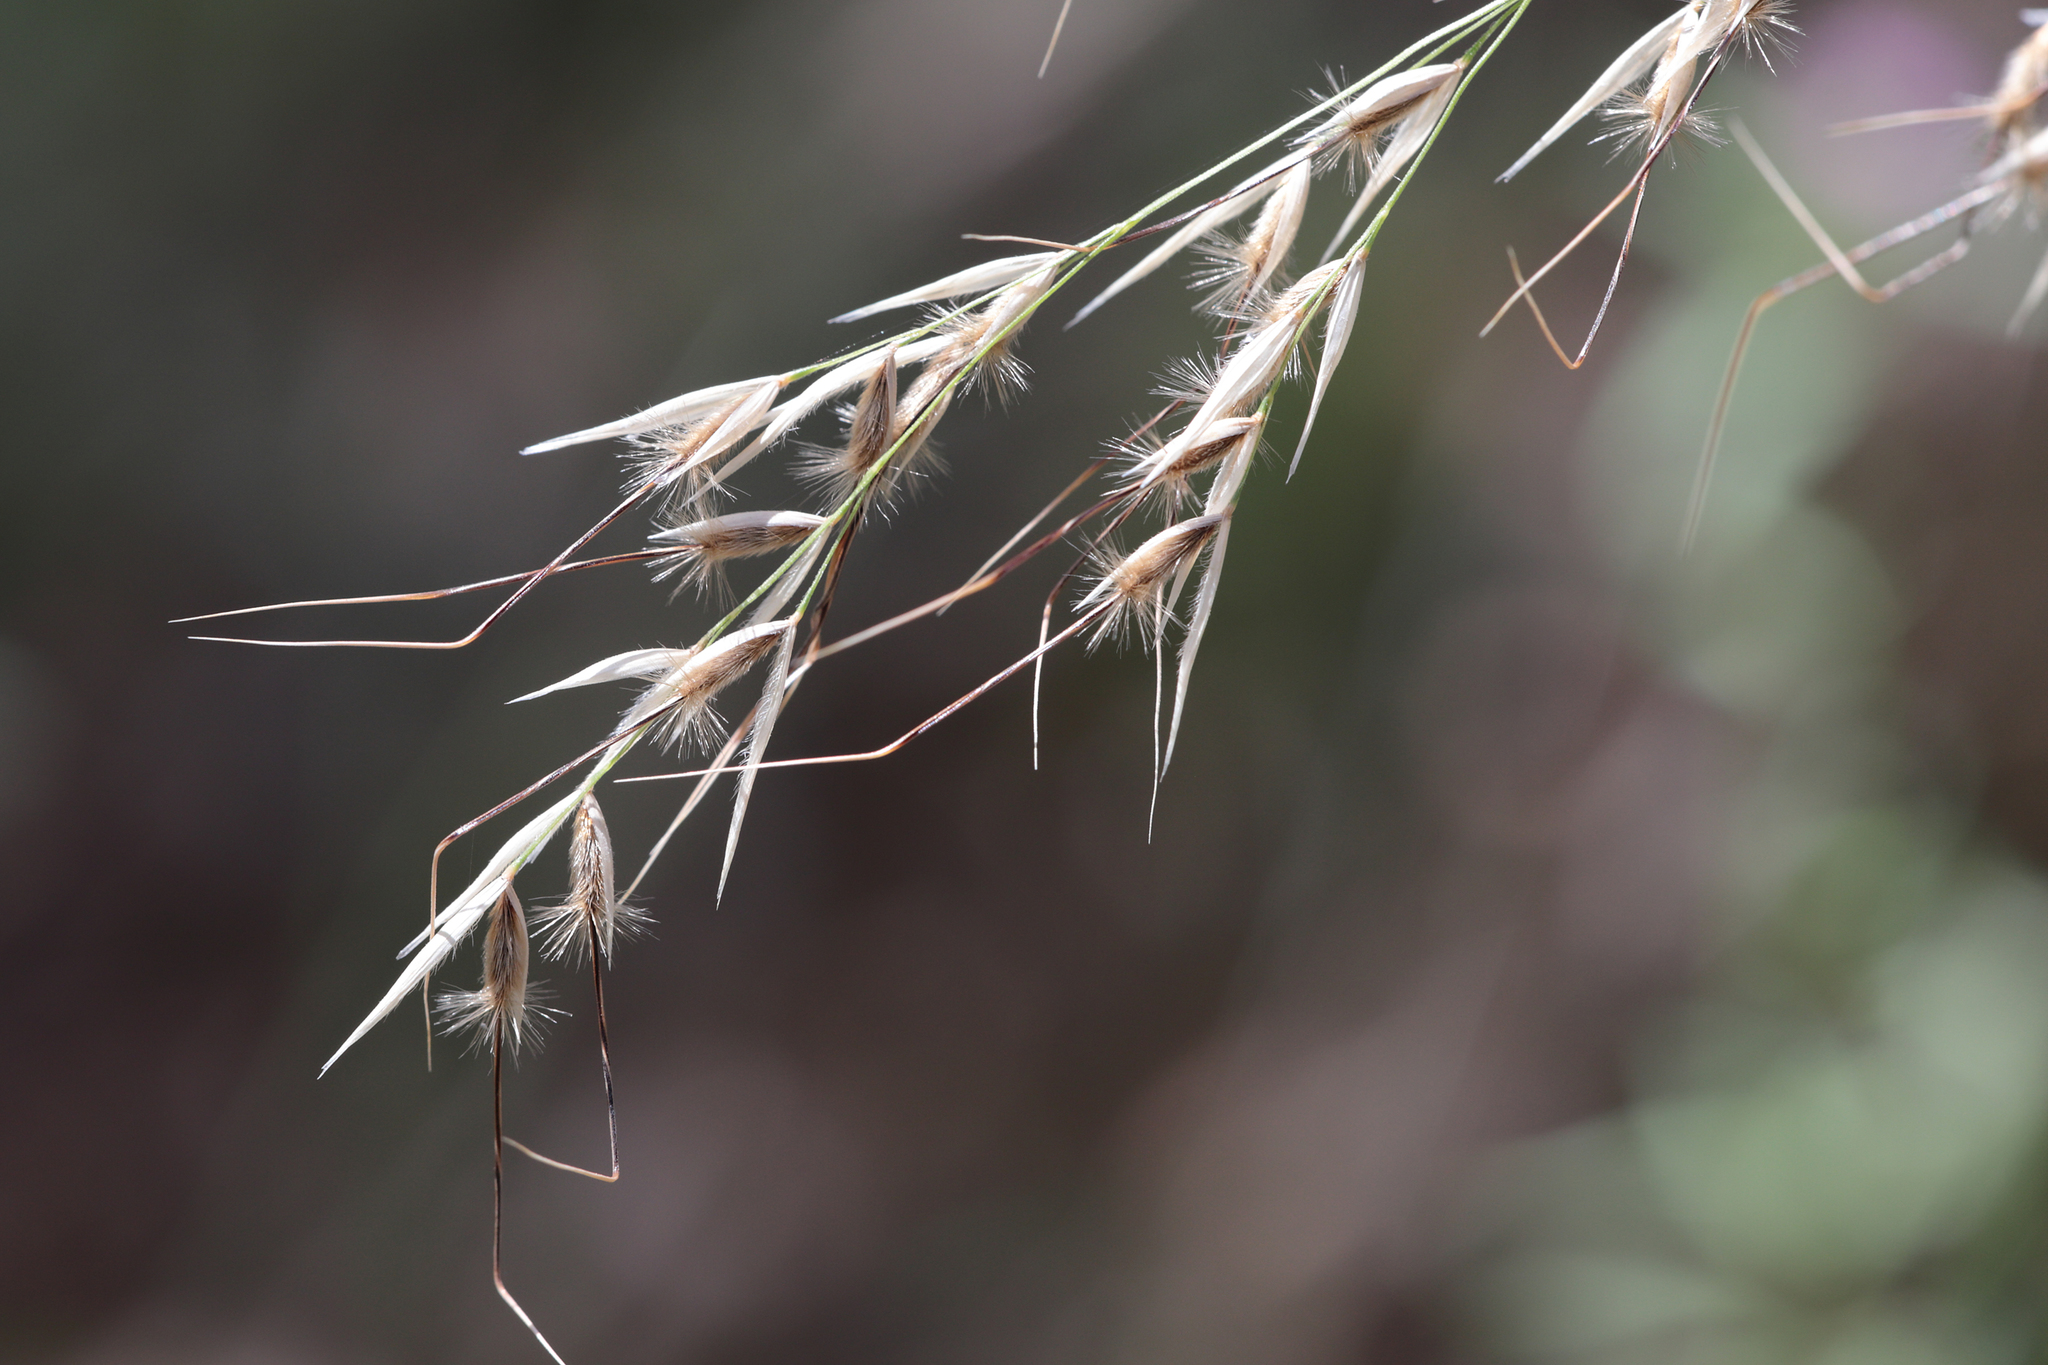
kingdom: Plantae
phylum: Tracheophyta
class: Liliopsida
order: Poales
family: Poaceae
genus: Austrostipa
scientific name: Austrostipa blackii
